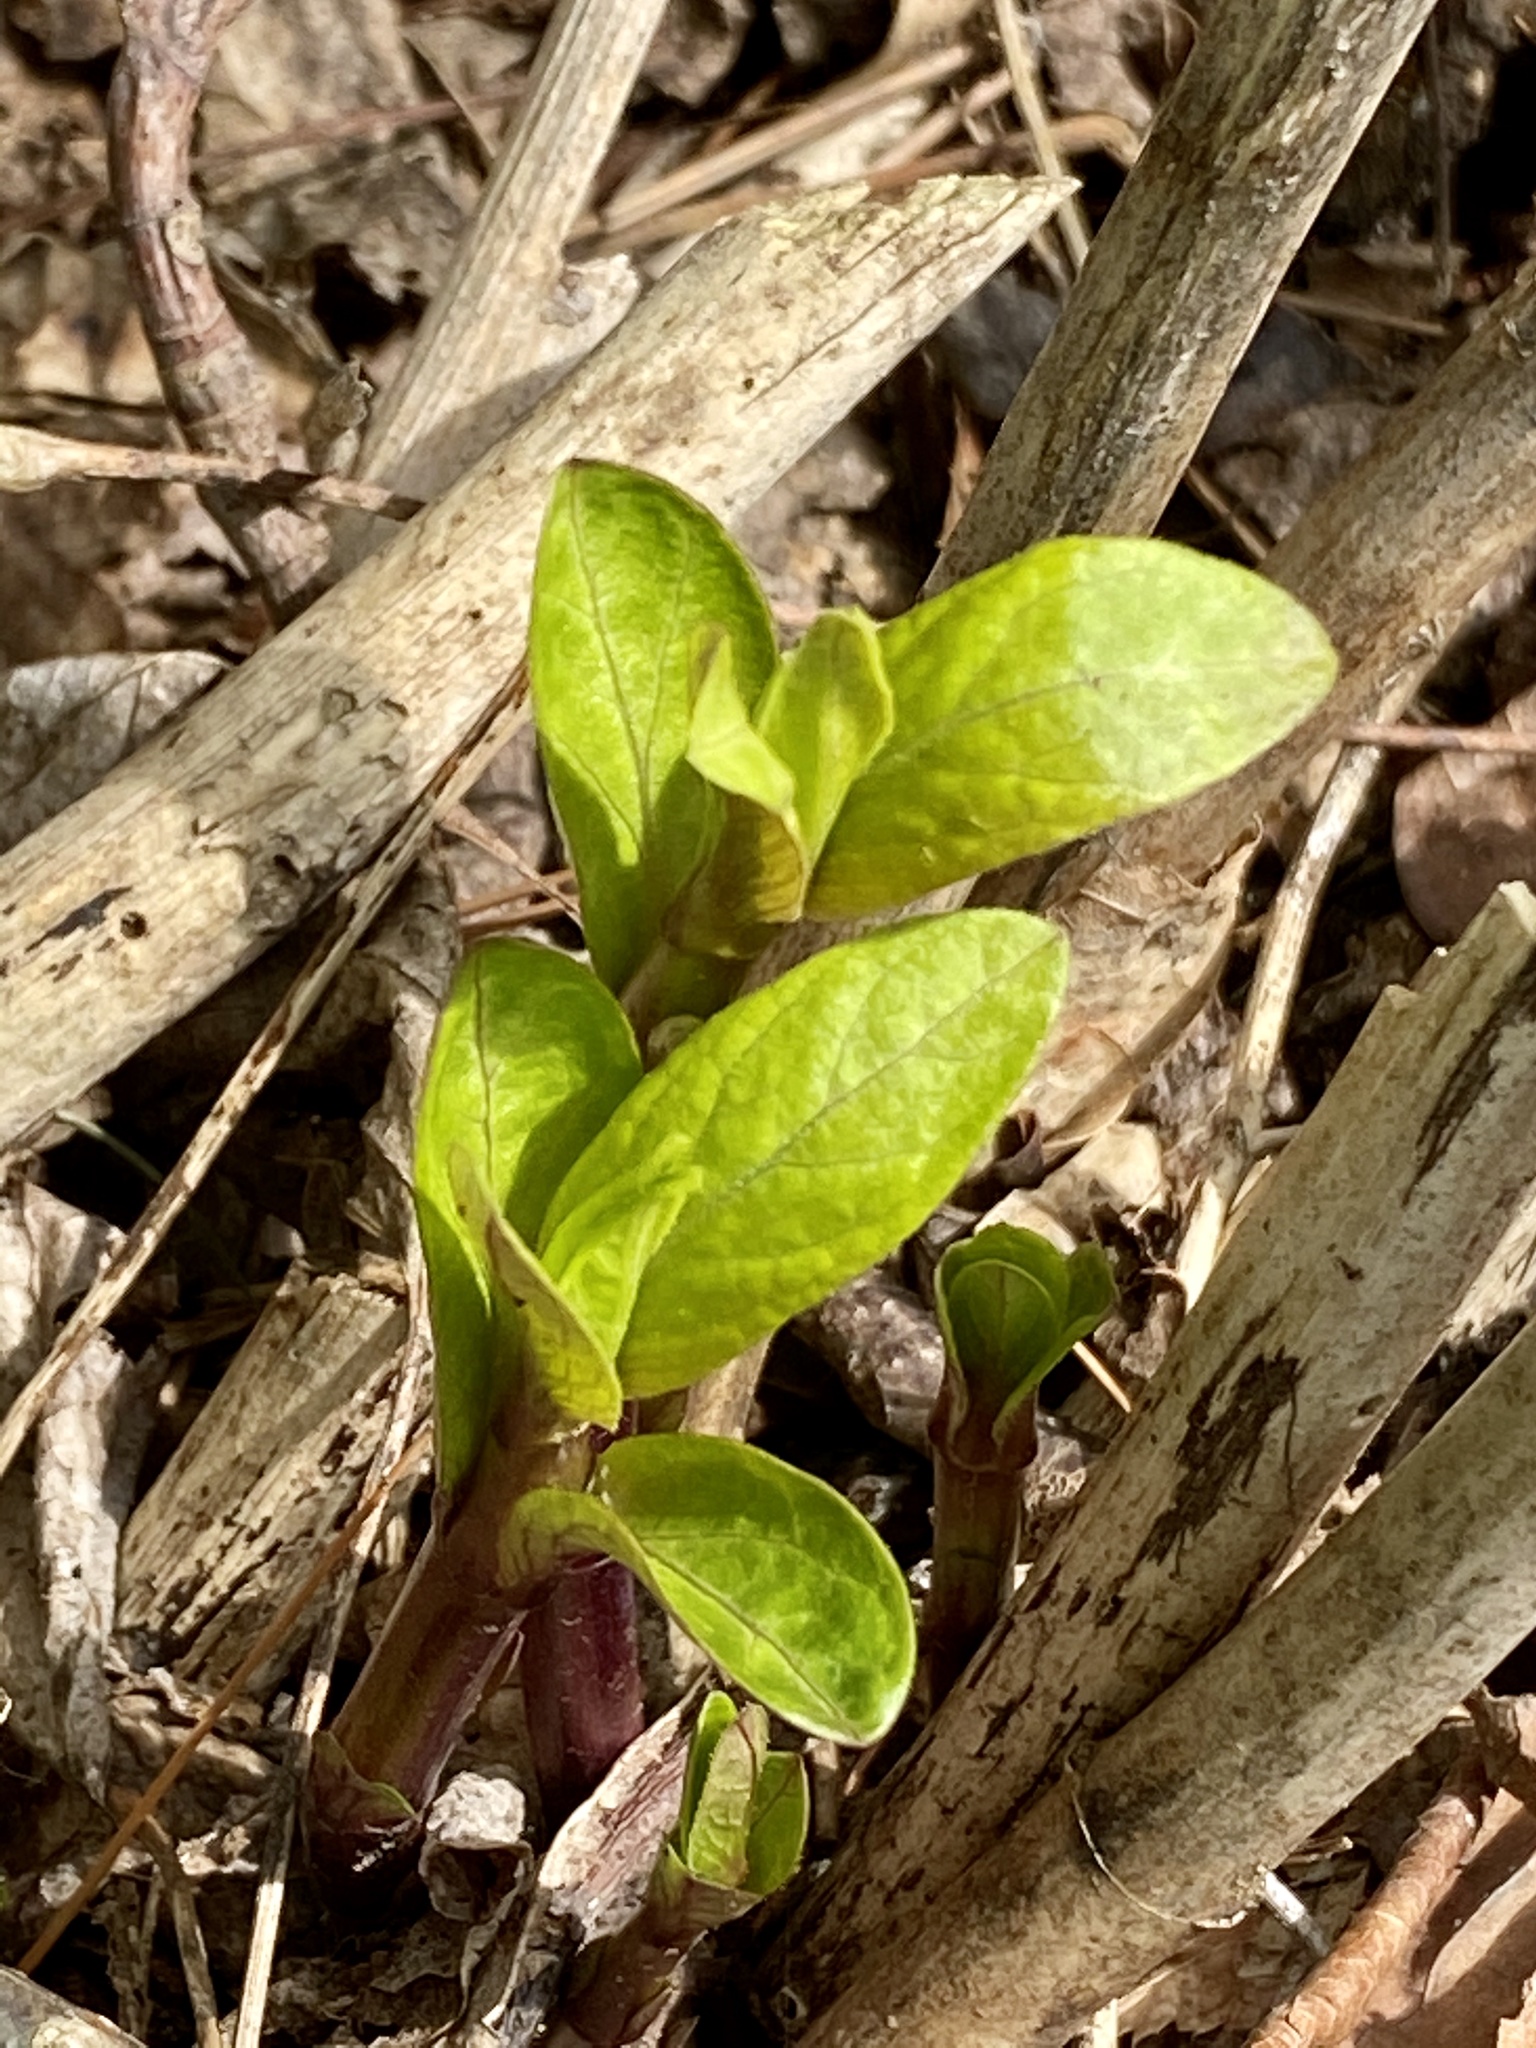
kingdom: Plantae
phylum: Tracheophyta
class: Magnoliopsida
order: Gentianales
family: Apocynaceae
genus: Asclepias
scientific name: Asclepias syriaca
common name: Common milkweed
